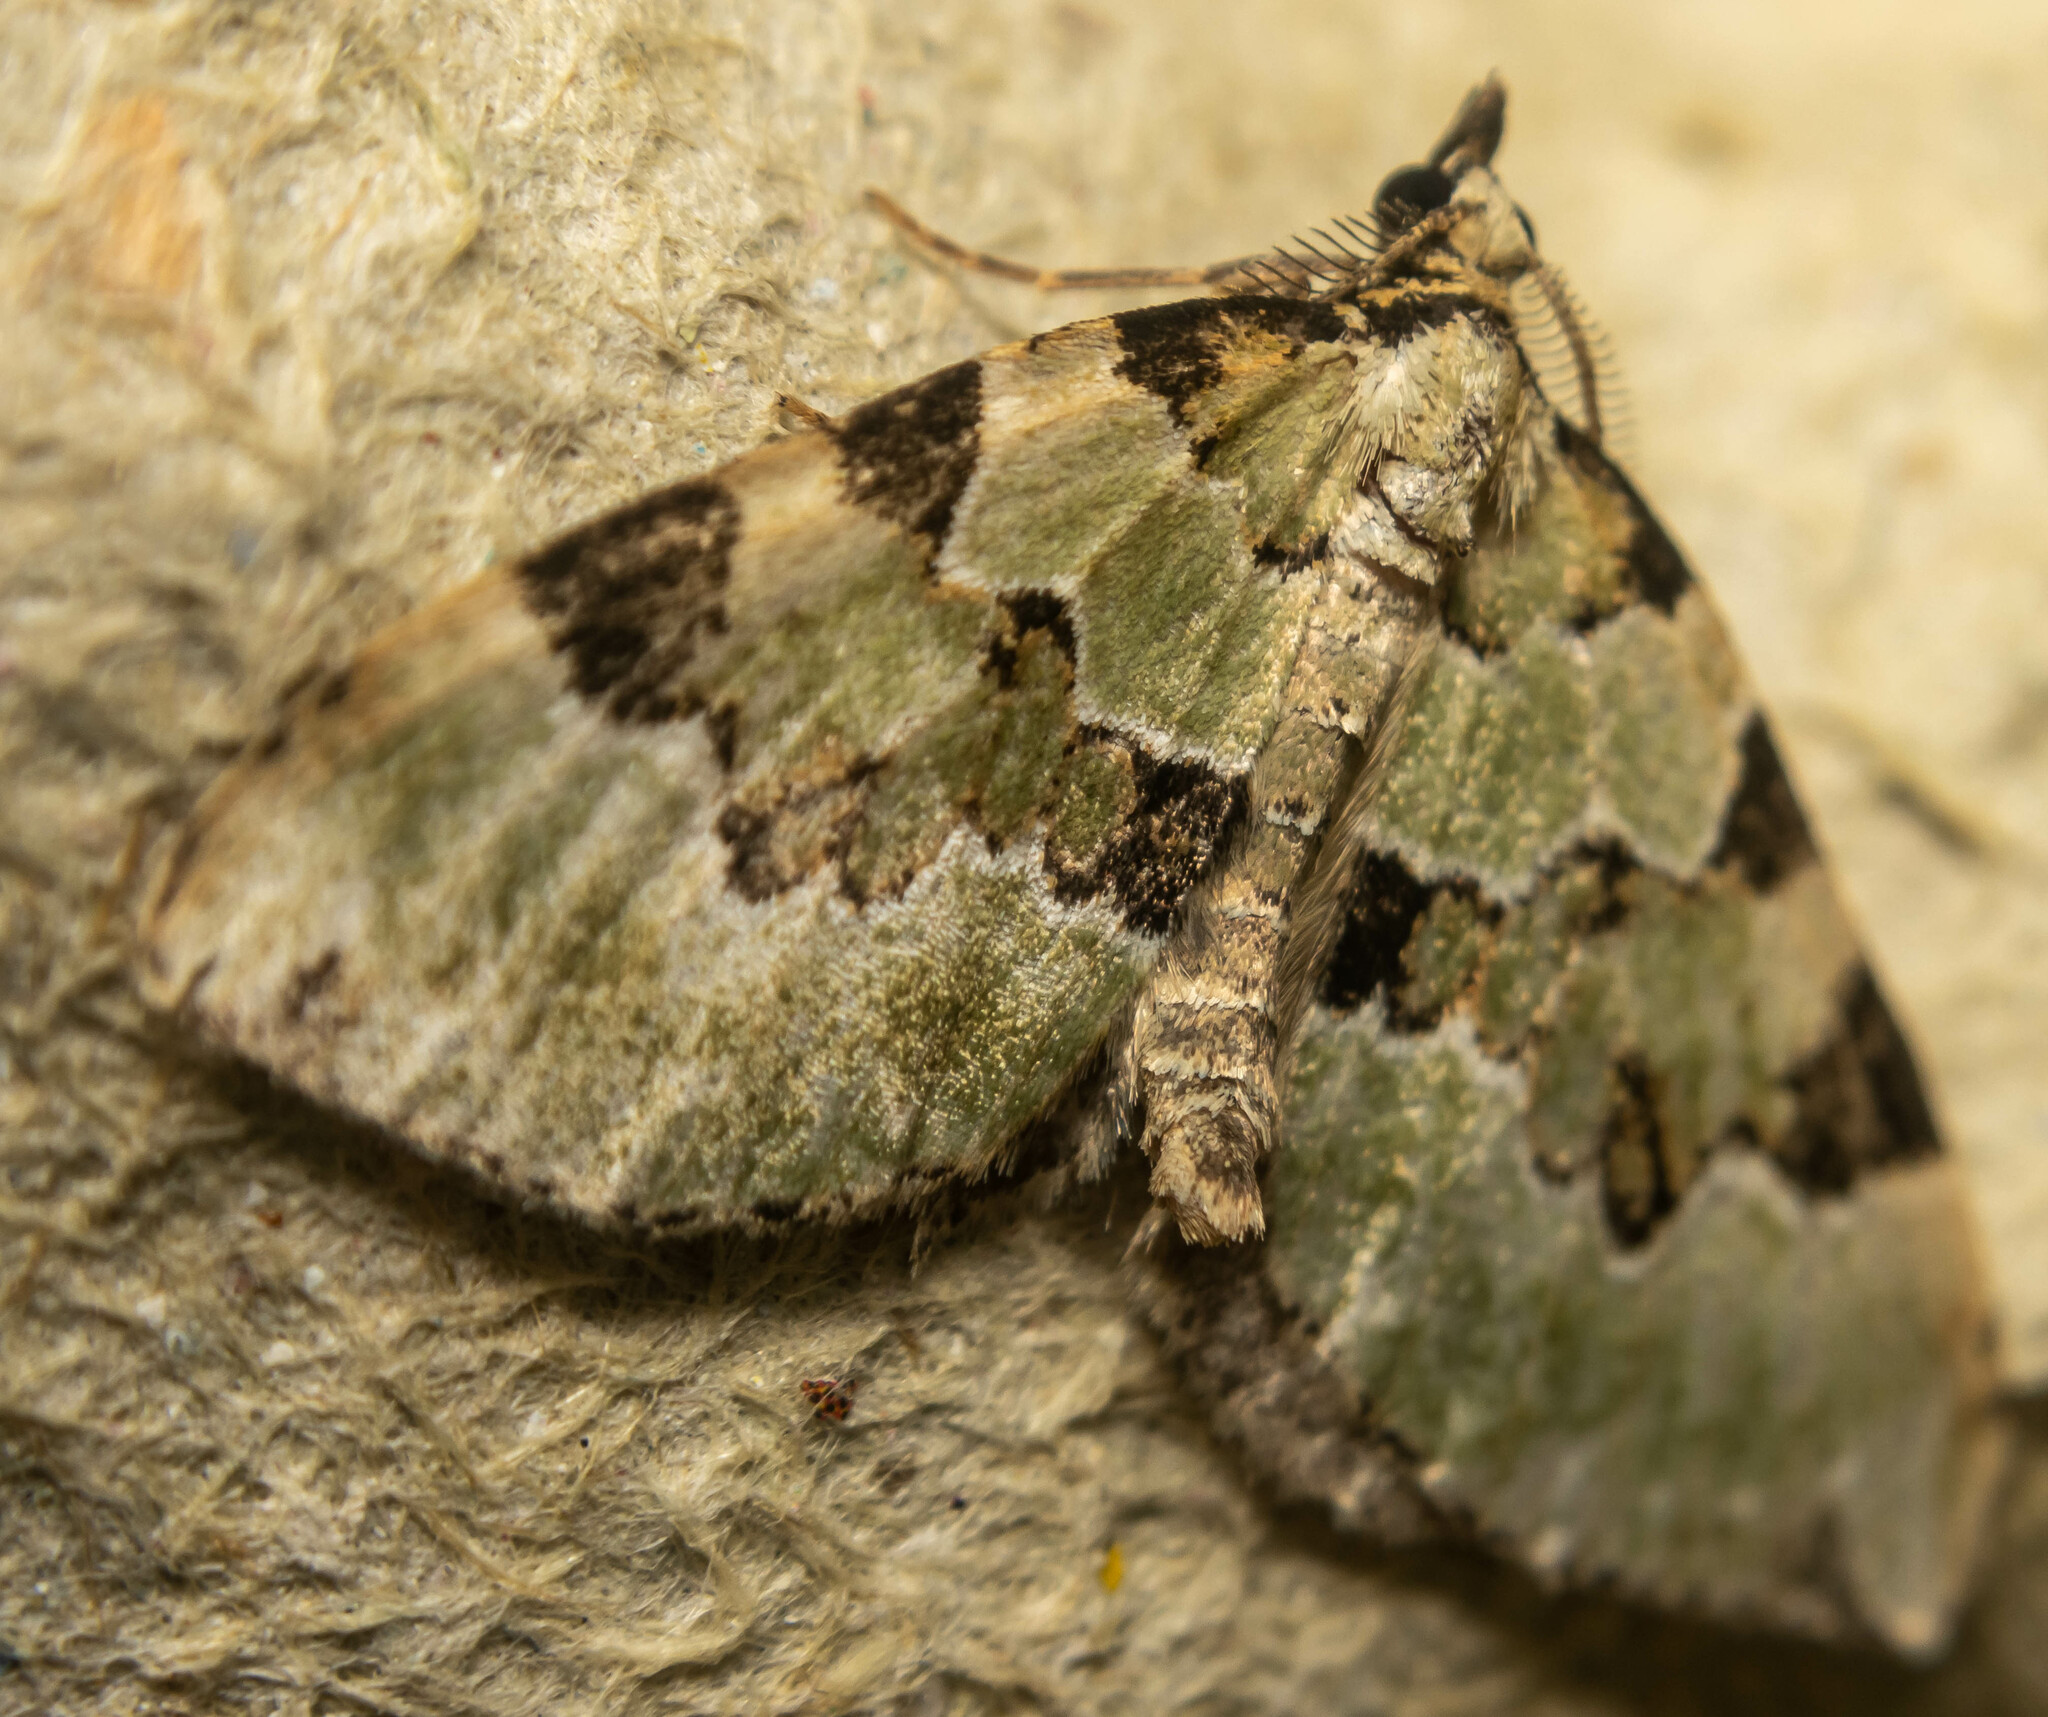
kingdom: Animalia
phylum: Arthropoda
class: Insecta
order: Lepidoptera
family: Geometridae
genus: Colostygia
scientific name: Colostygia pectinataria
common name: Green carpet
